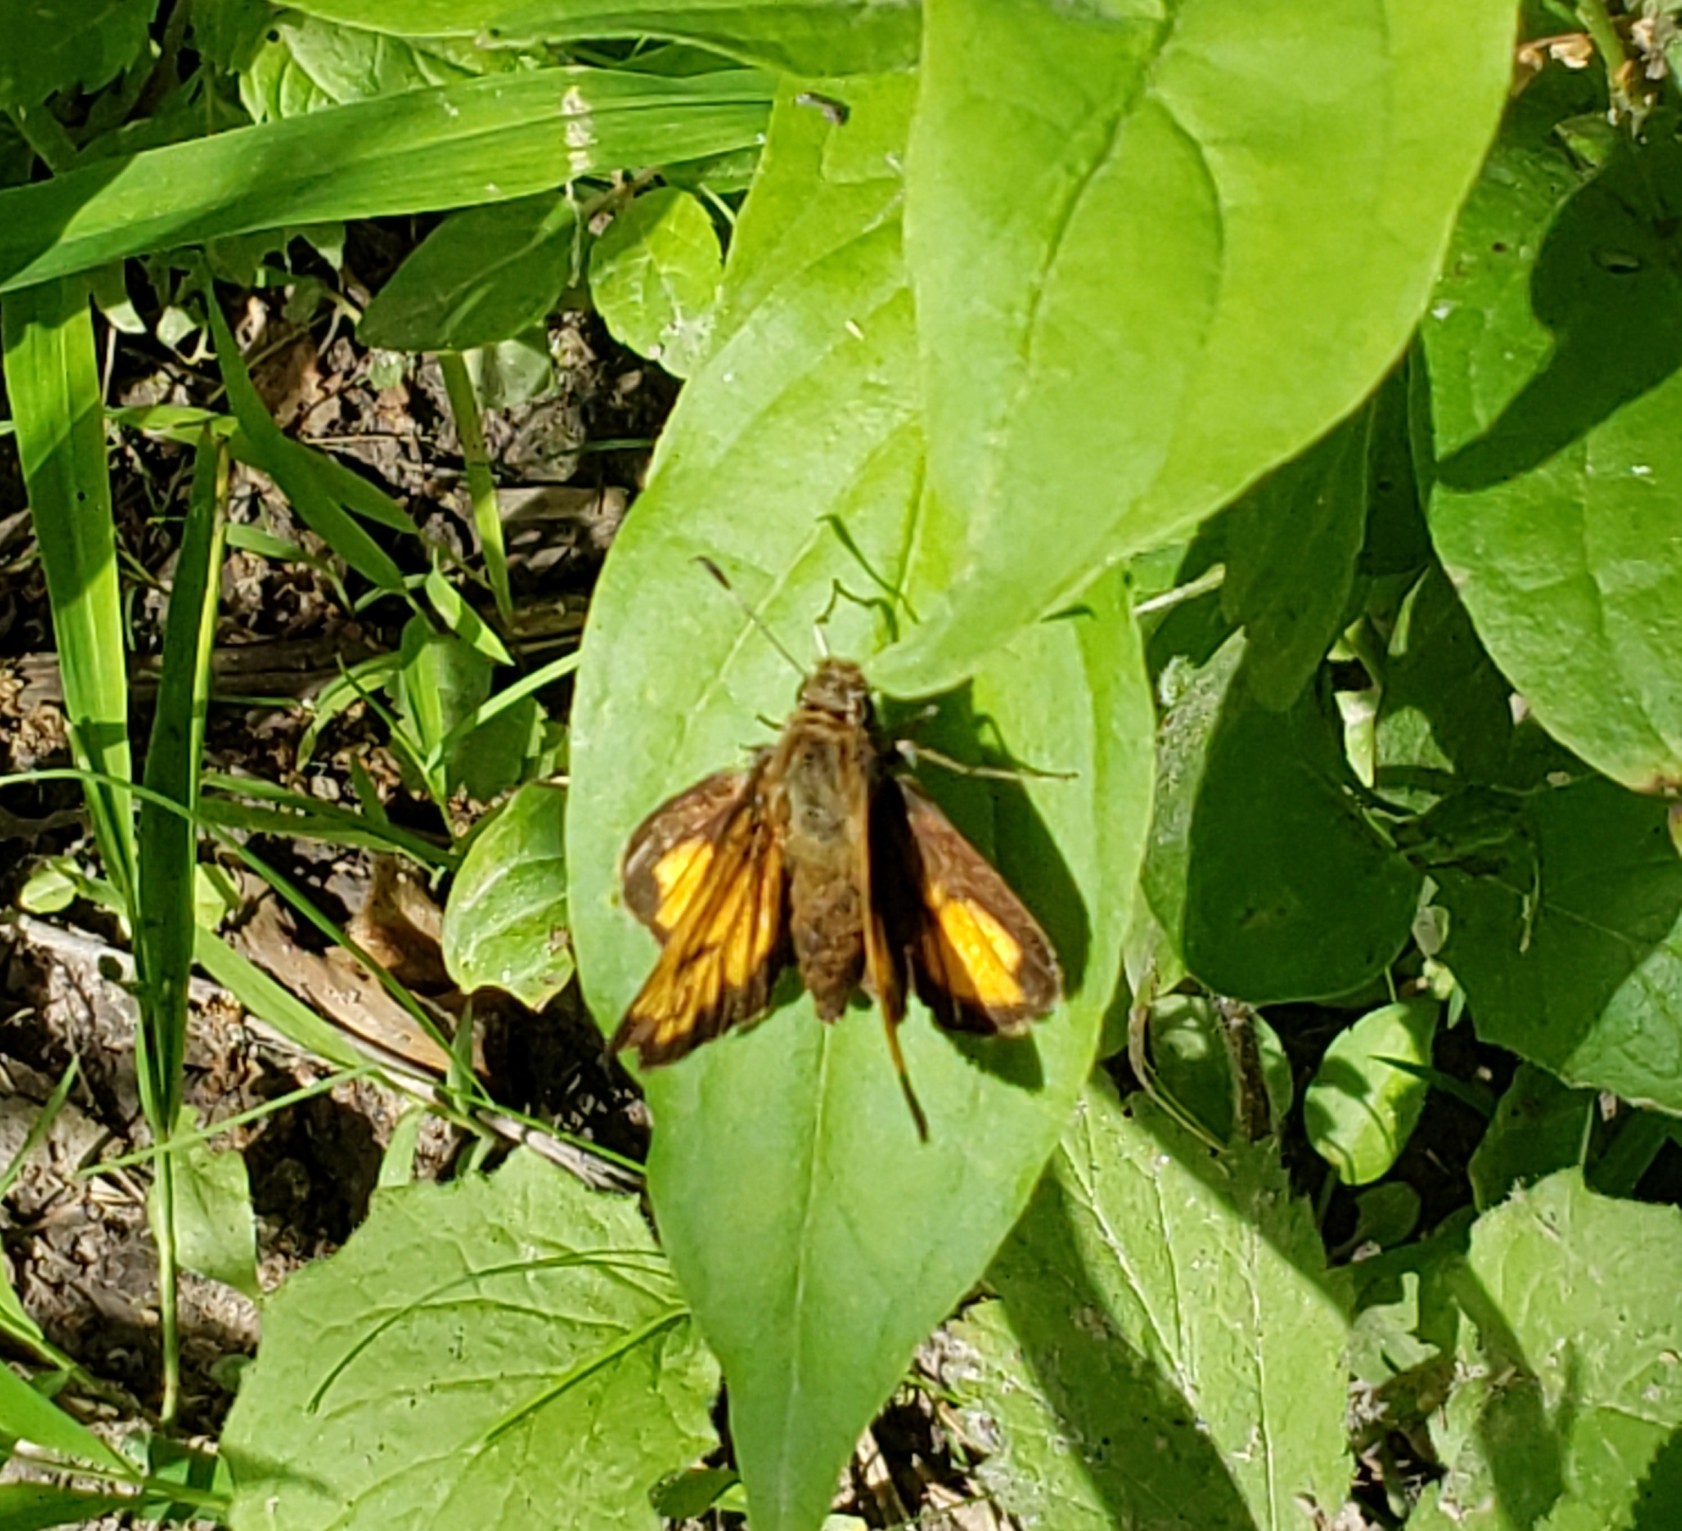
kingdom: Animalia
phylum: Arthropoda
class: Insecta
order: Lepidoptera
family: Hesperiidae
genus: Lon
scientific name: Lon hobomok
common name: Hobomok skipper
